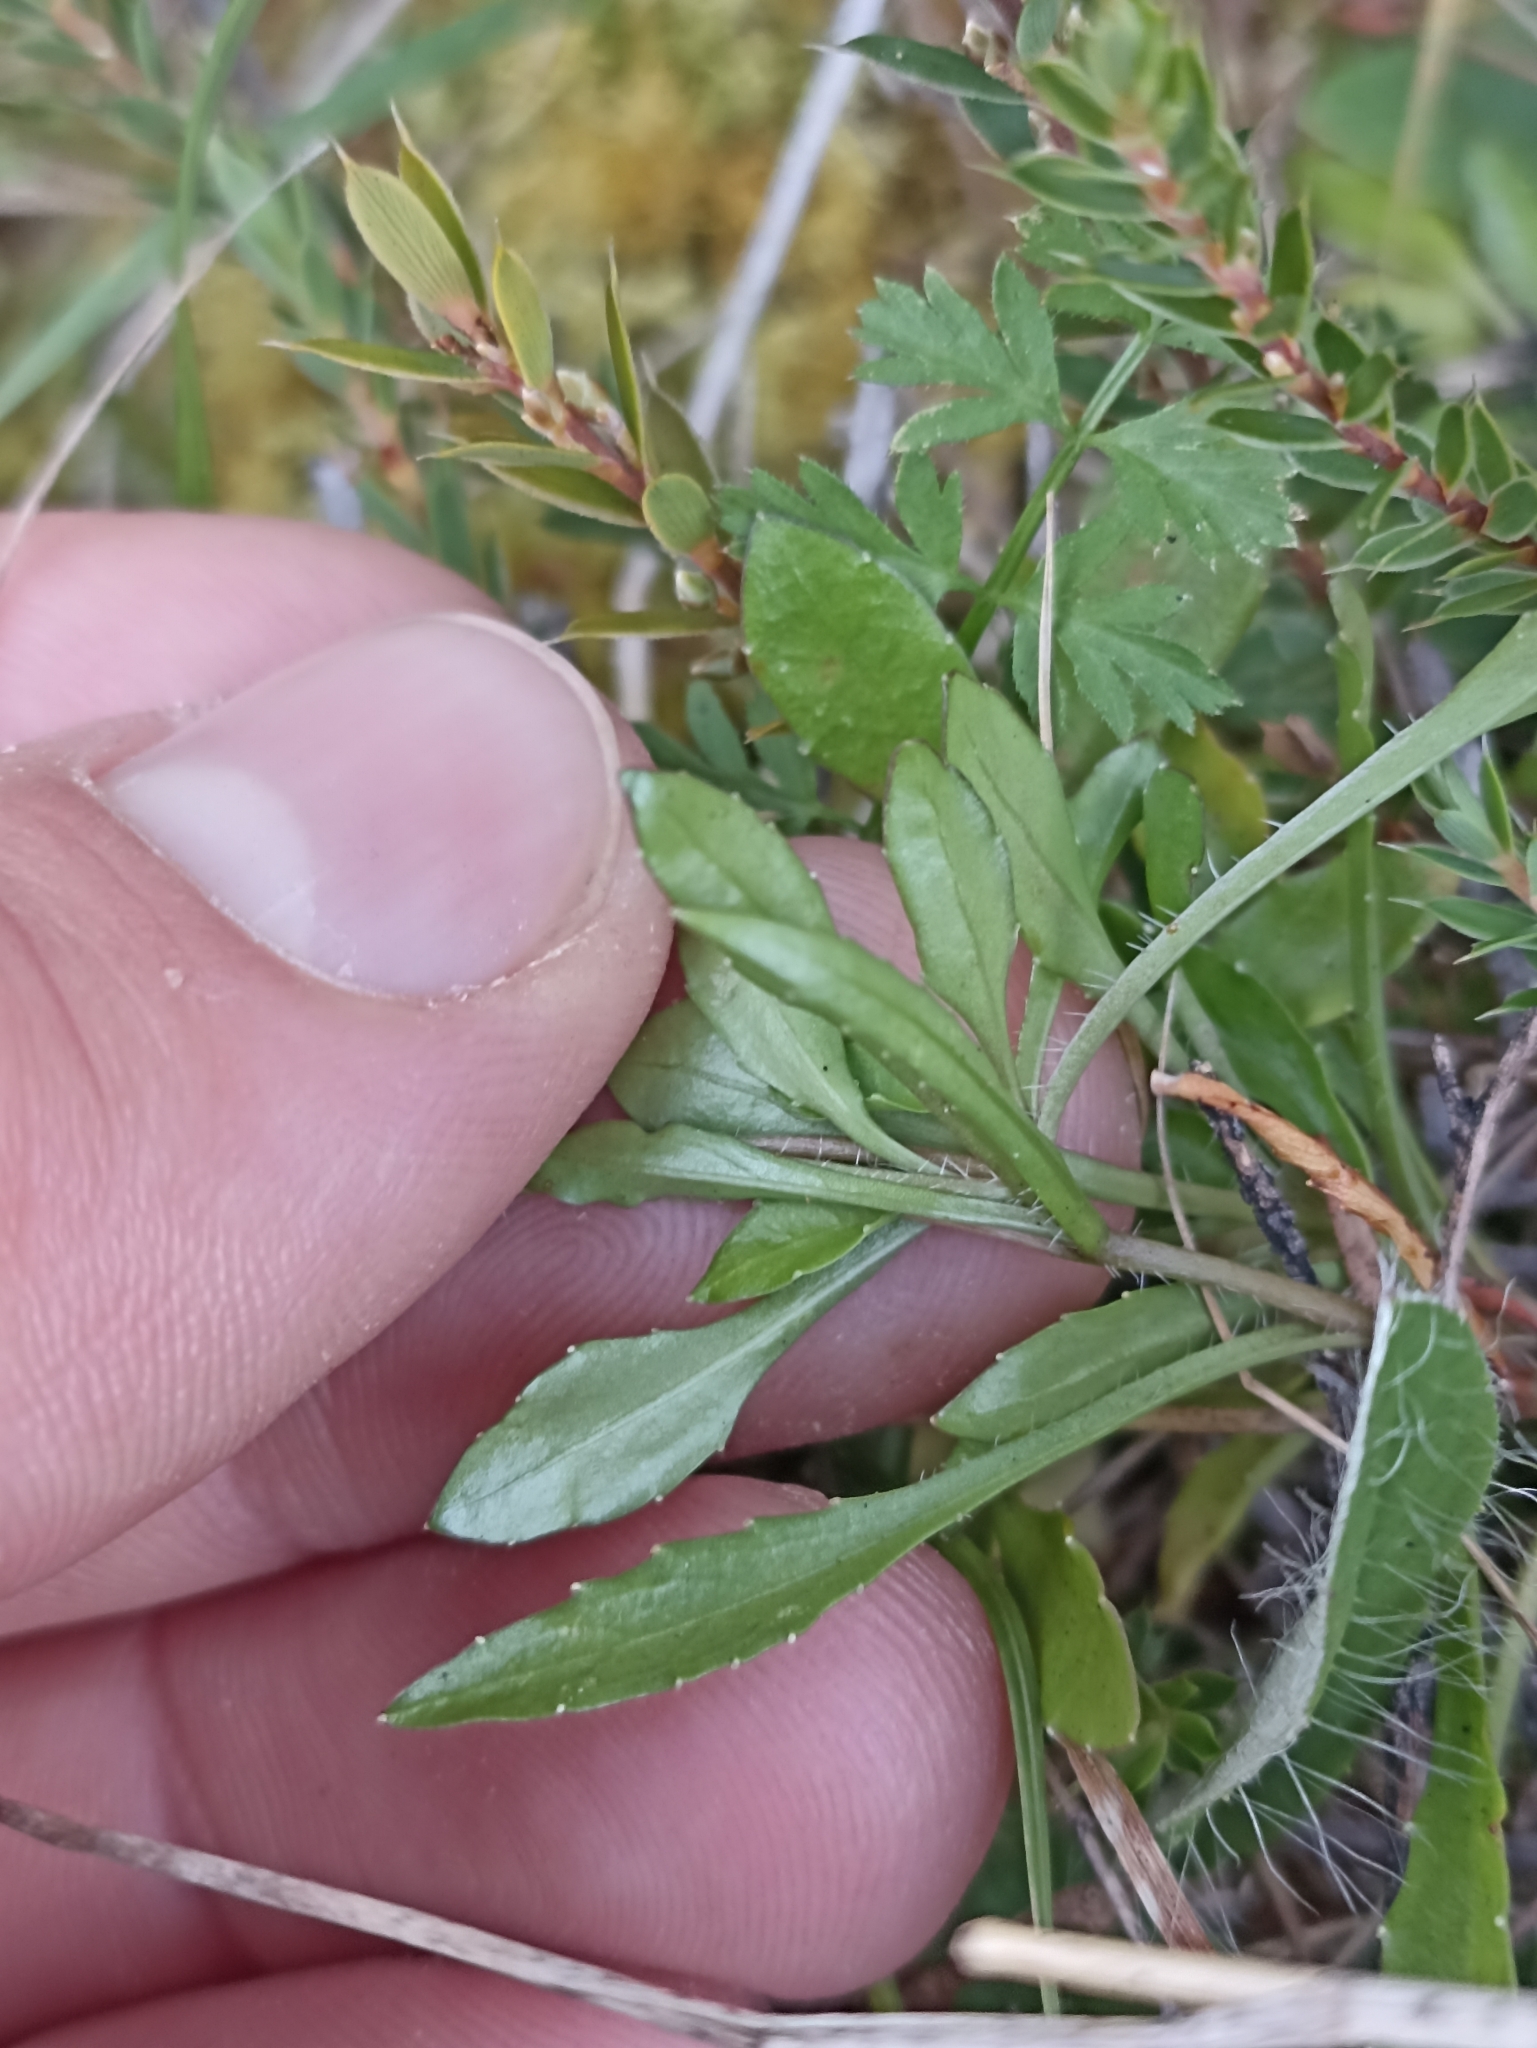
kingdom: Plantae
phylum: Tracheophyta
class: Magnoliopsida
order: Asterales
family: Campanulaceae
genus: Wahlenbergia
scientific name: Wahlenbergia albomarginata
